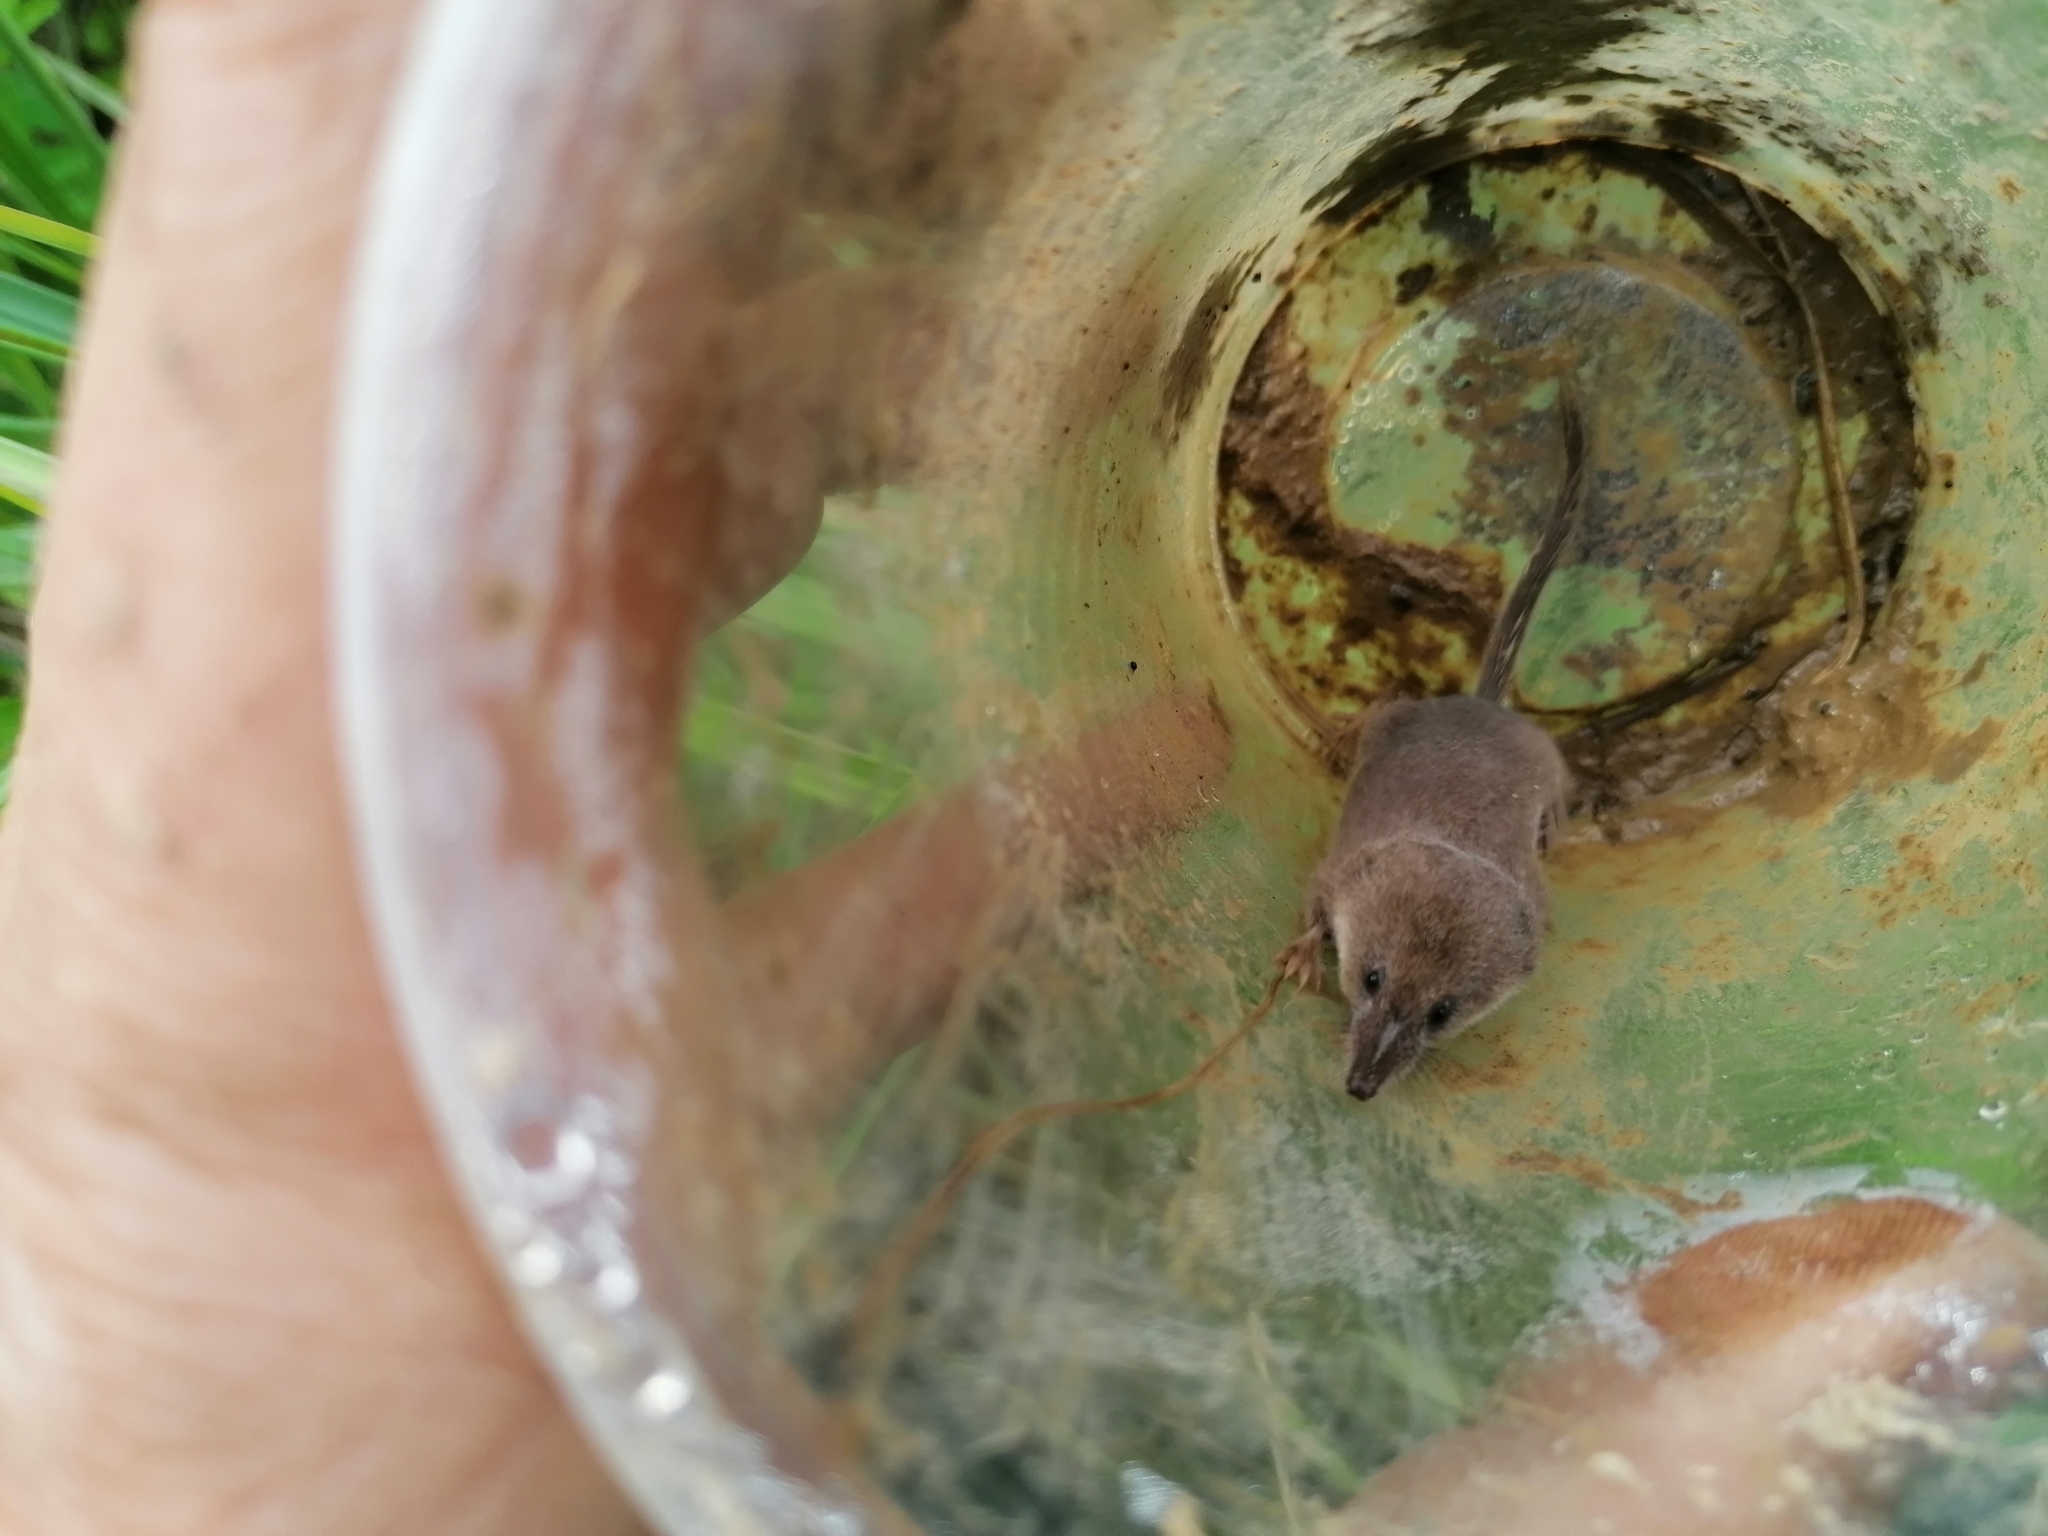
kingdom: Animalia
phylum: Chordata
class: Mammalia
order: Soricomorpha
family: Soricidae
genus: Sorex
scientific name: Sorex minutus
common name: Eurasian pygmy shrew
